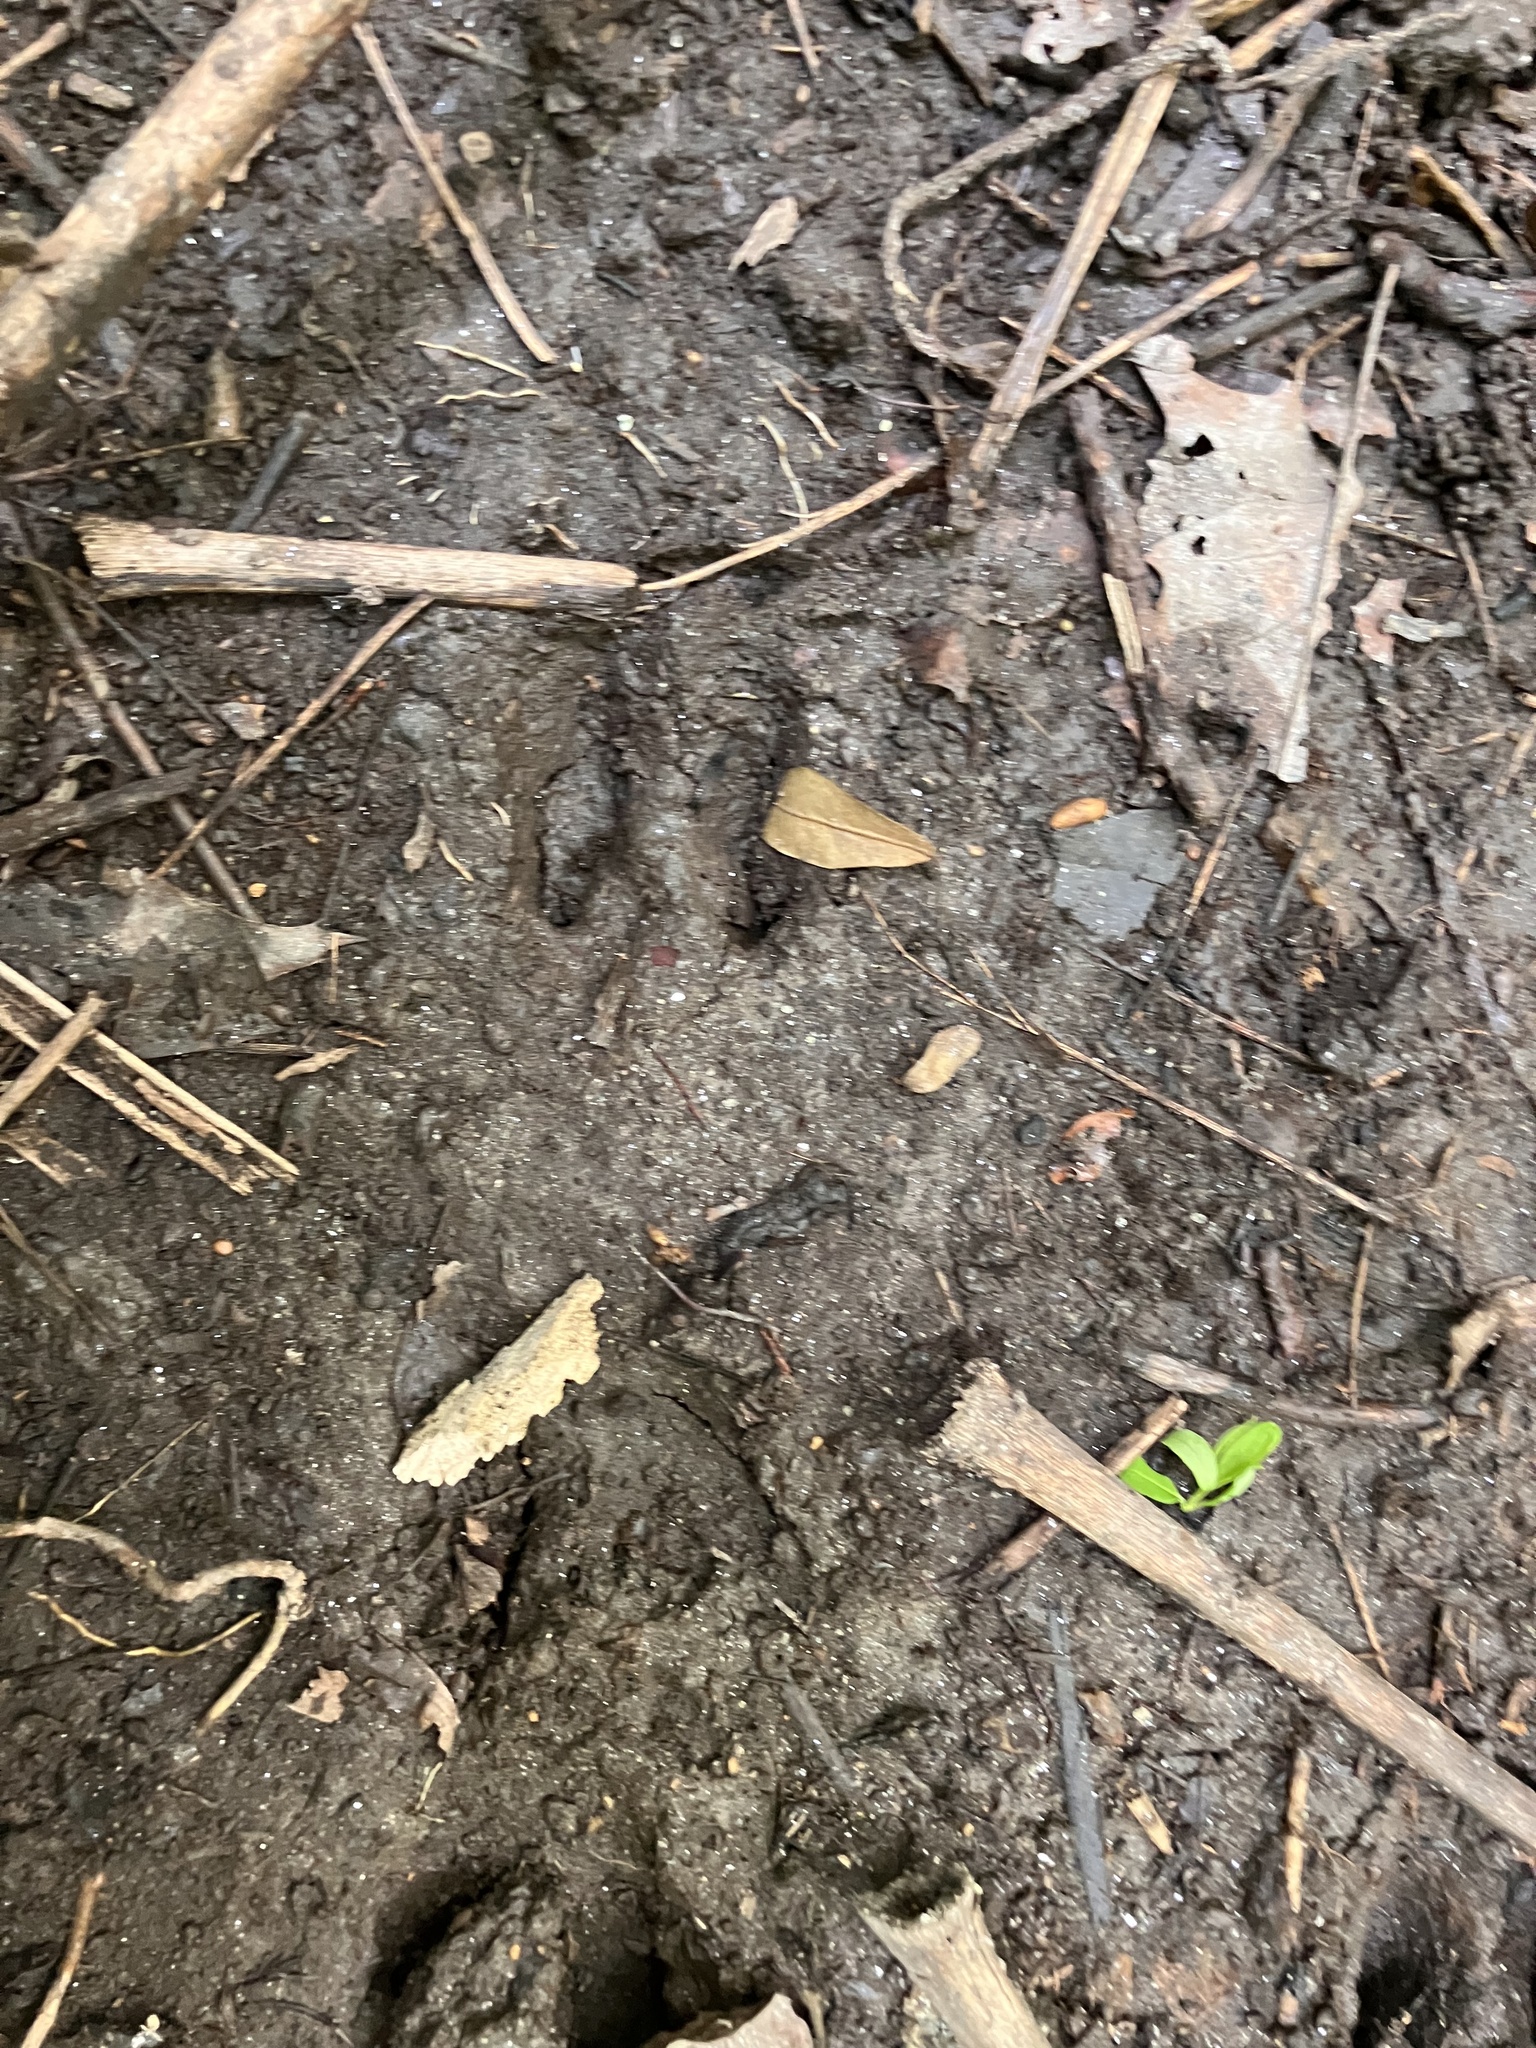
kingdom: Animalia
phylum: Chordata
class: Mammalia
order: Artiodactyla
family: Cervidae
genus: Odocoileus
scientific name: Odocoileus virginianus
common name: White-tailed deer
